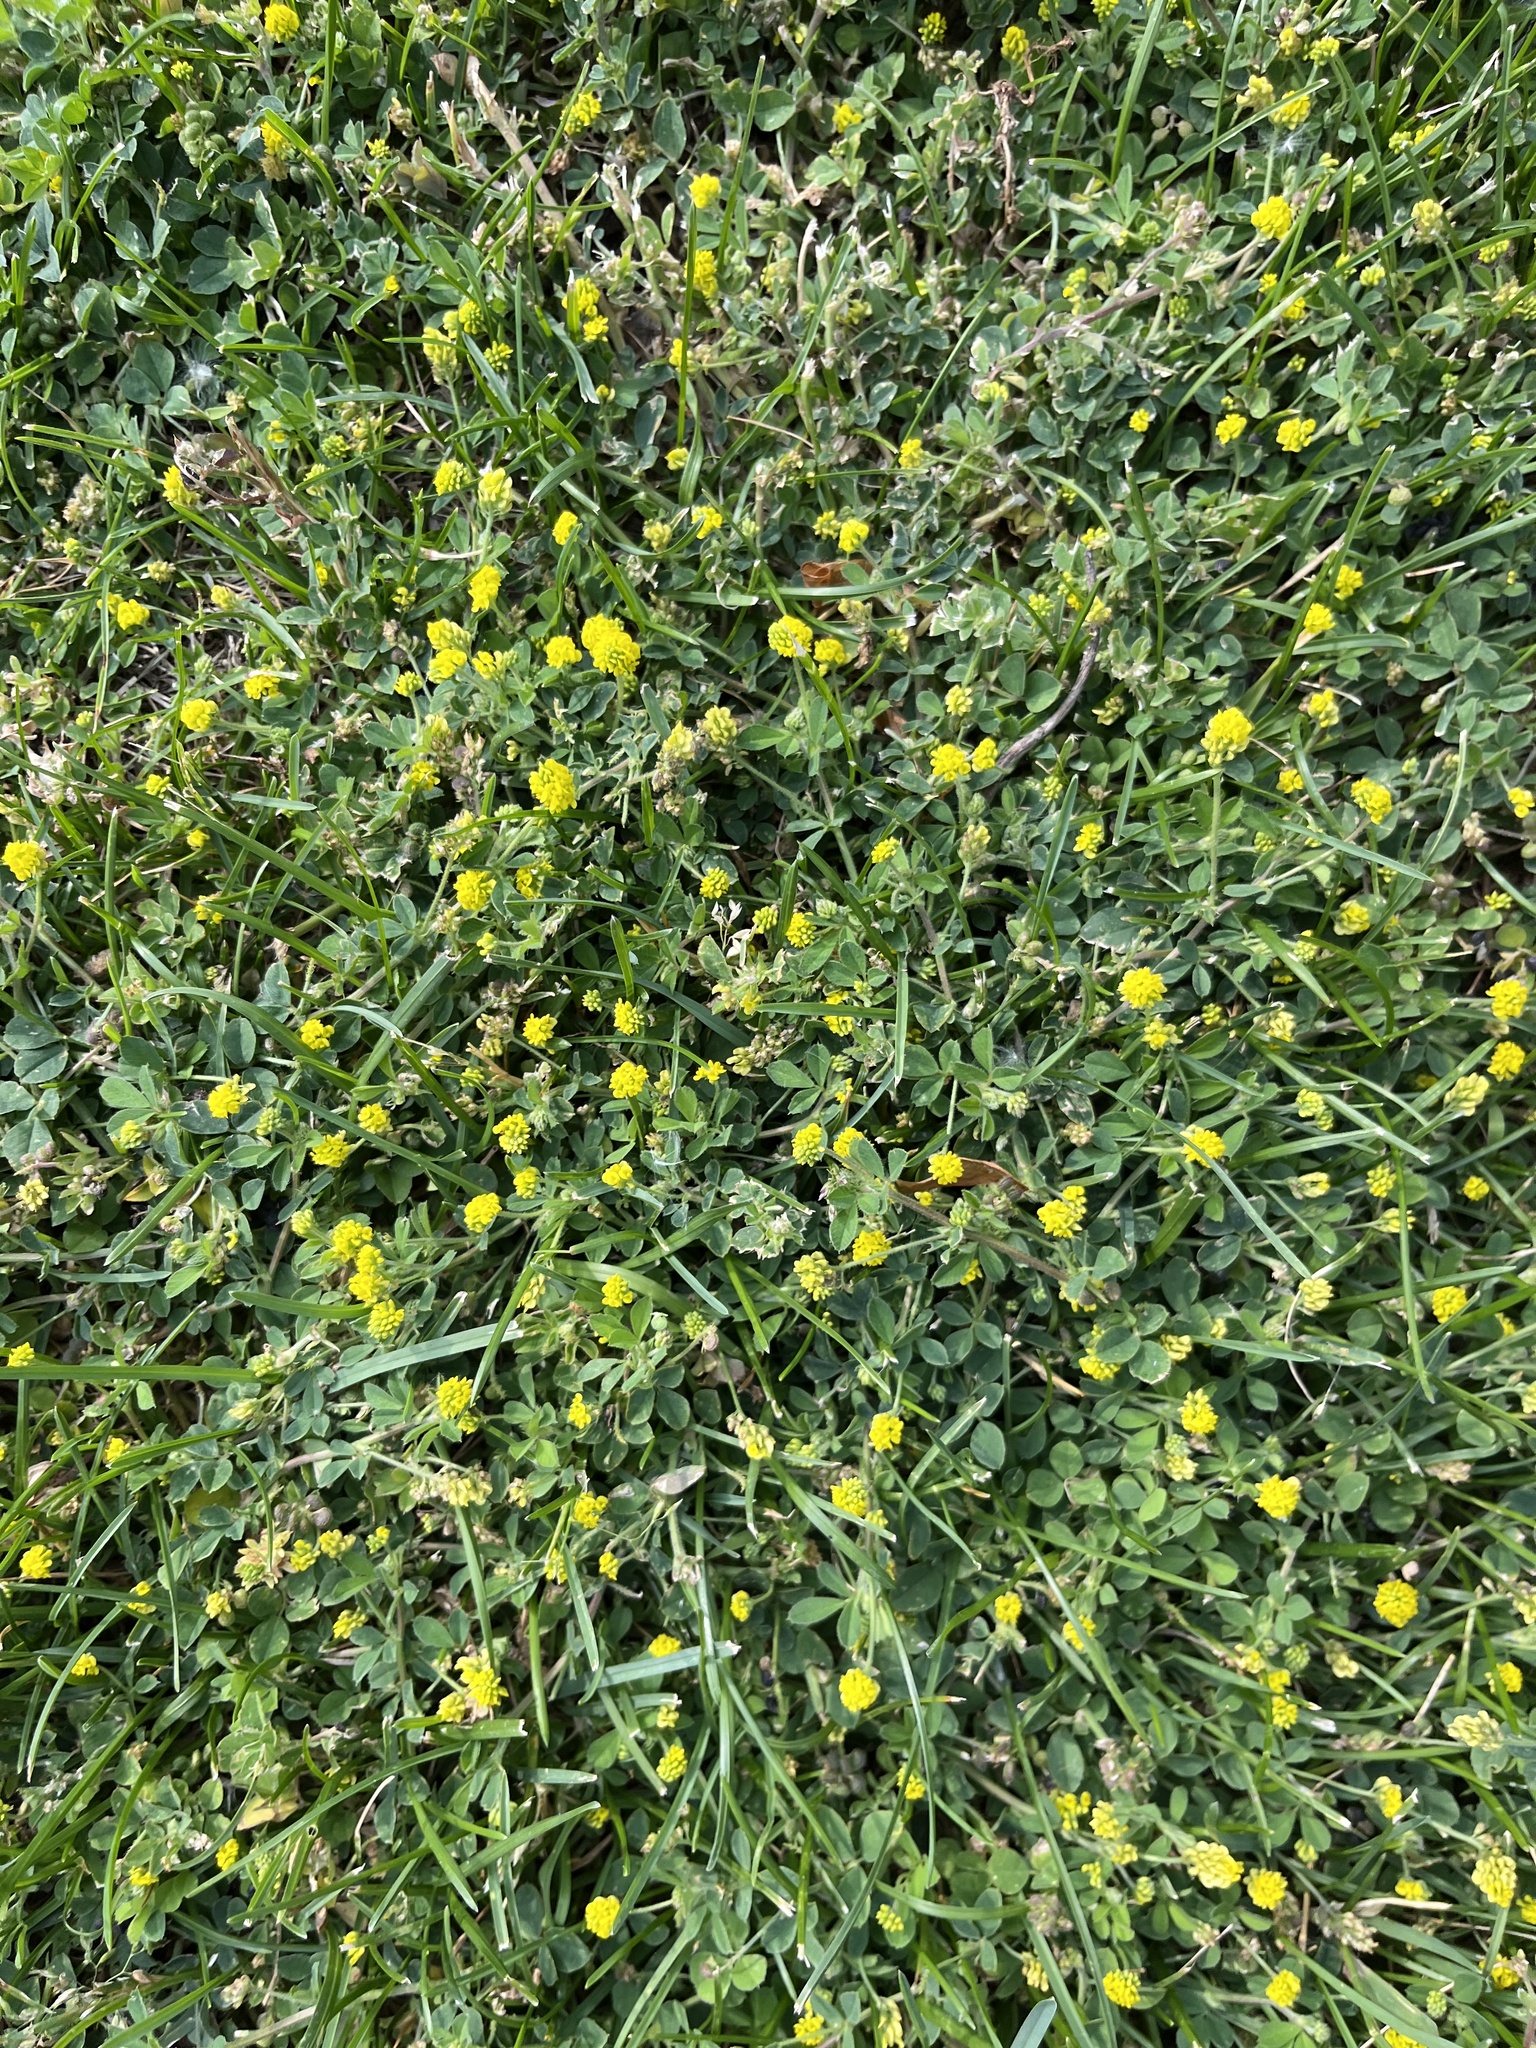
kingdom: Plantae
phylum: Tracheophyta
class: Magnoliopsida
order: Fabales
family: Fabaceae
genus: Medicago
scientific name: Medicago lupulina
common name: Black medick
